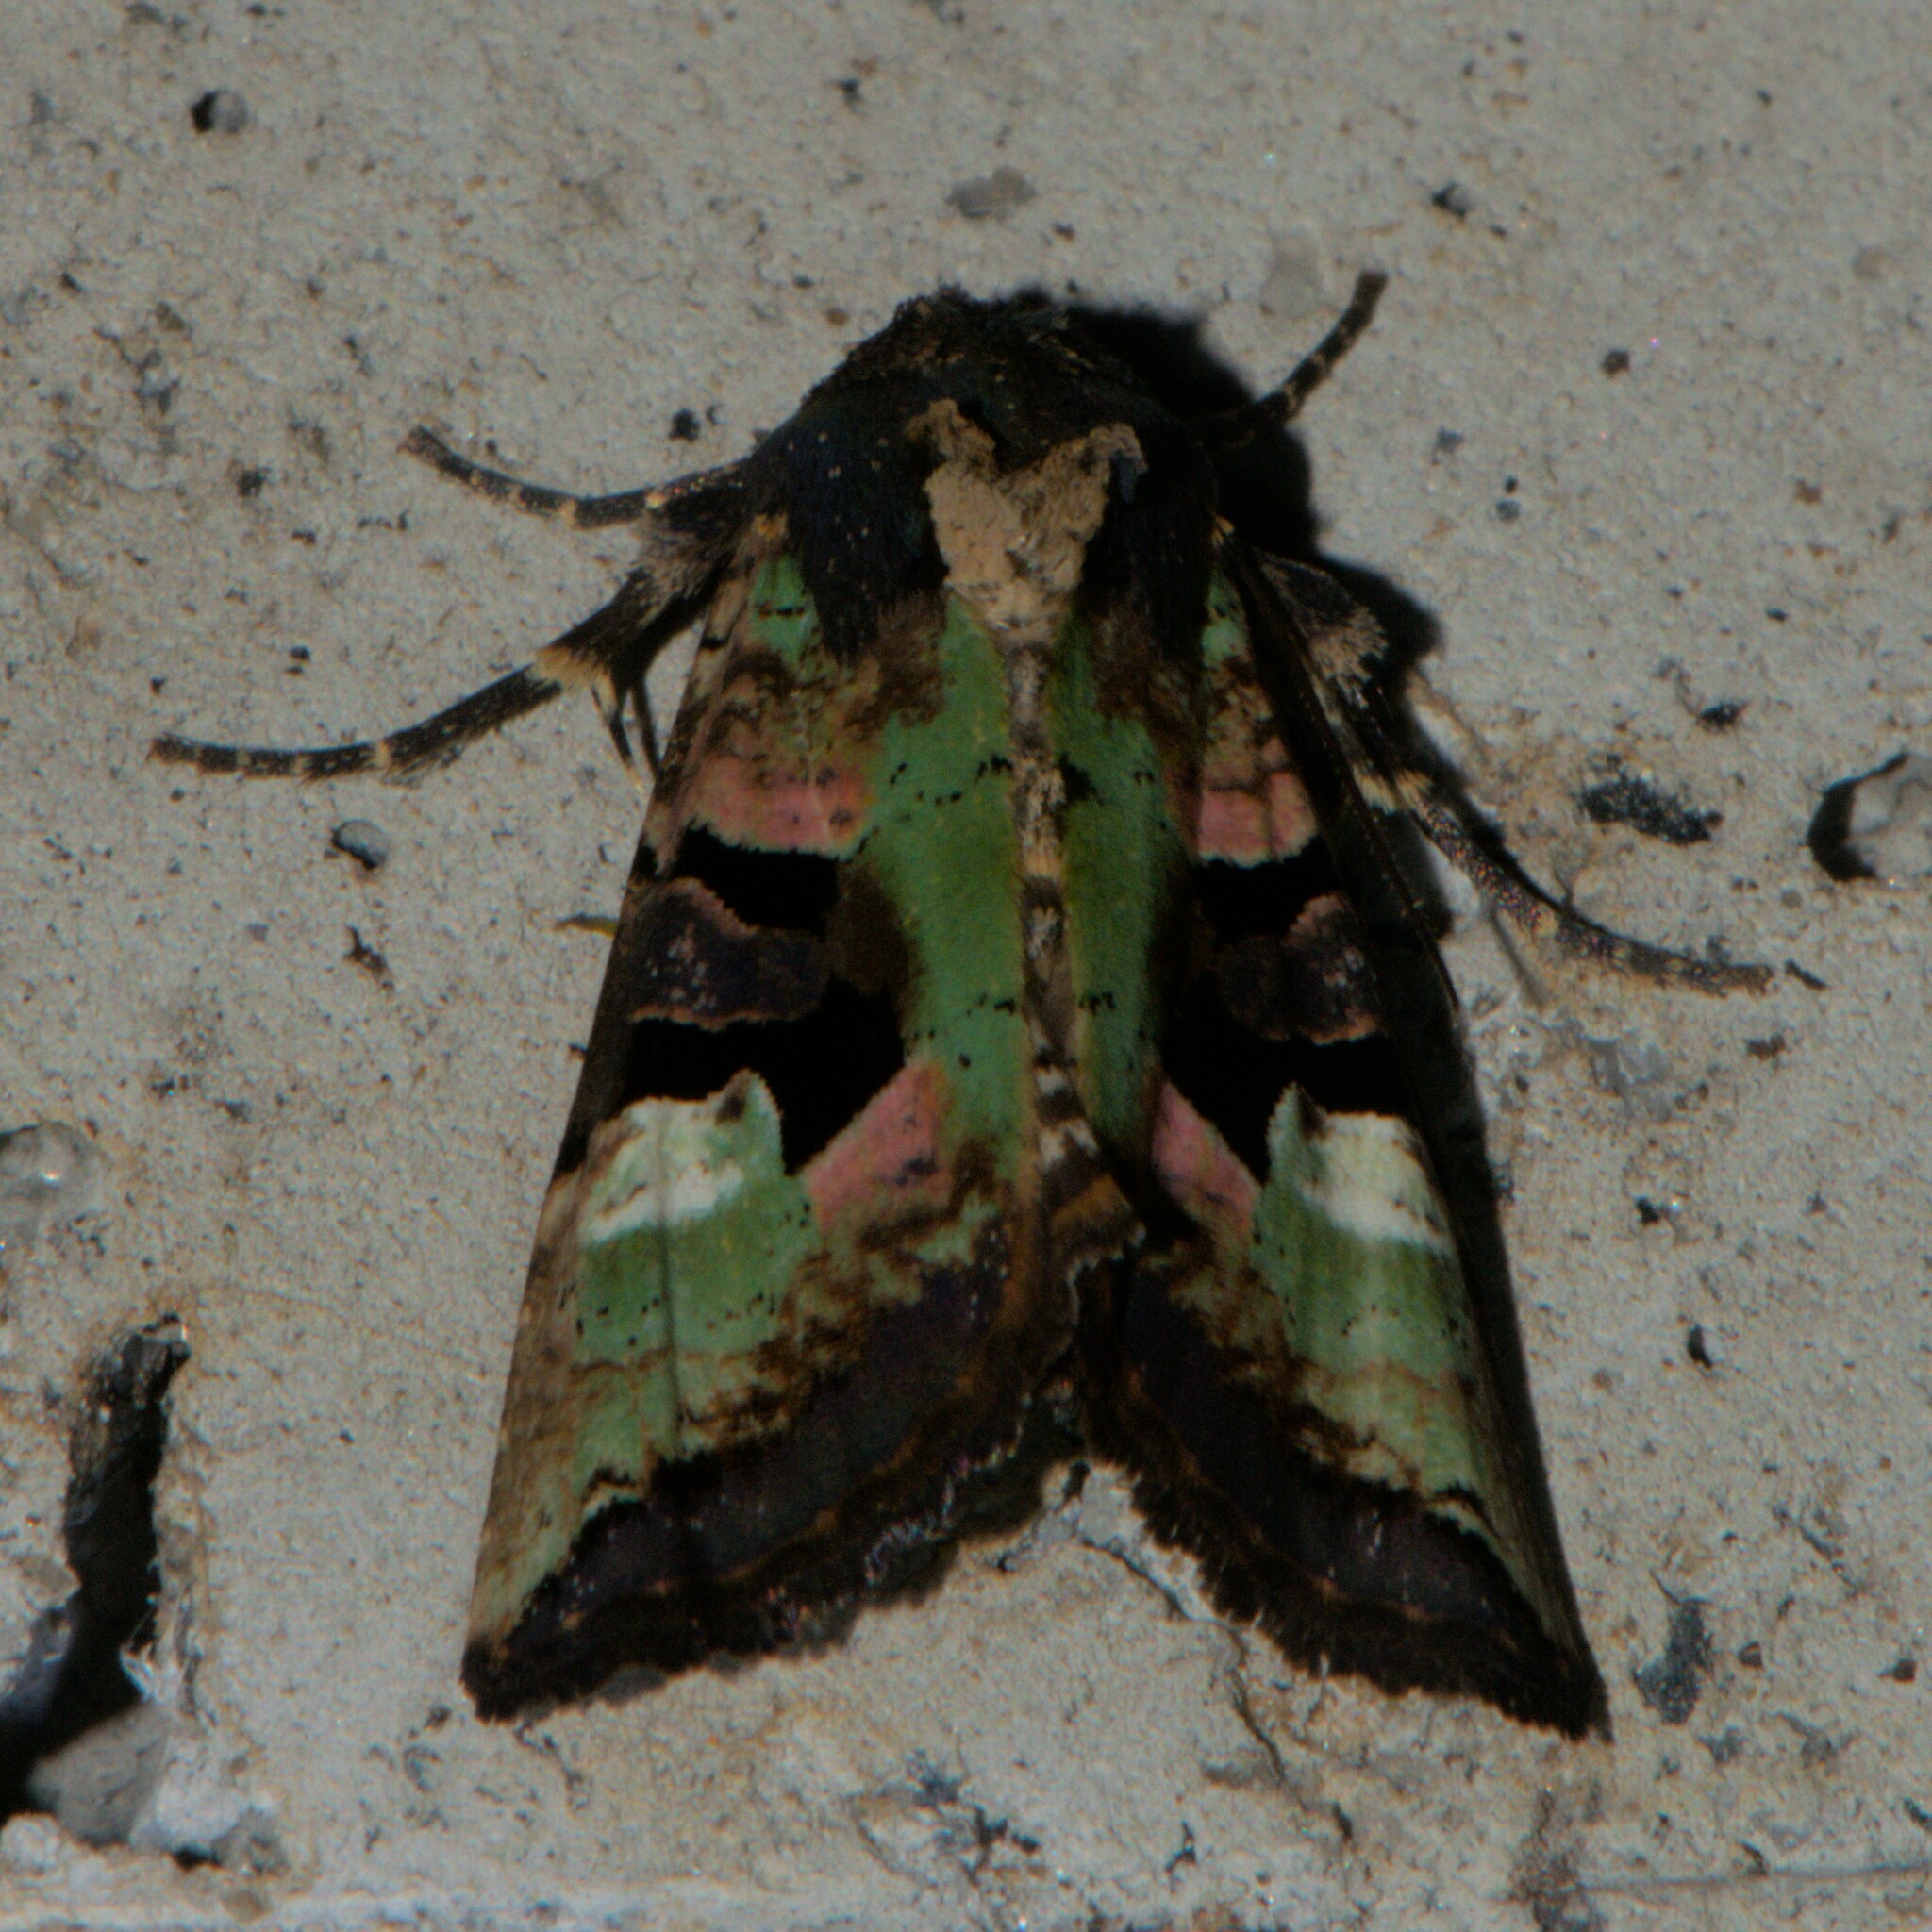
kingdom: Animalia
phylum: Arthropoda
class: Insecta
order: Lepidoptera
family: Noctuidae
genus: Phlogophora
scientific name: Phlogophora discisignata
